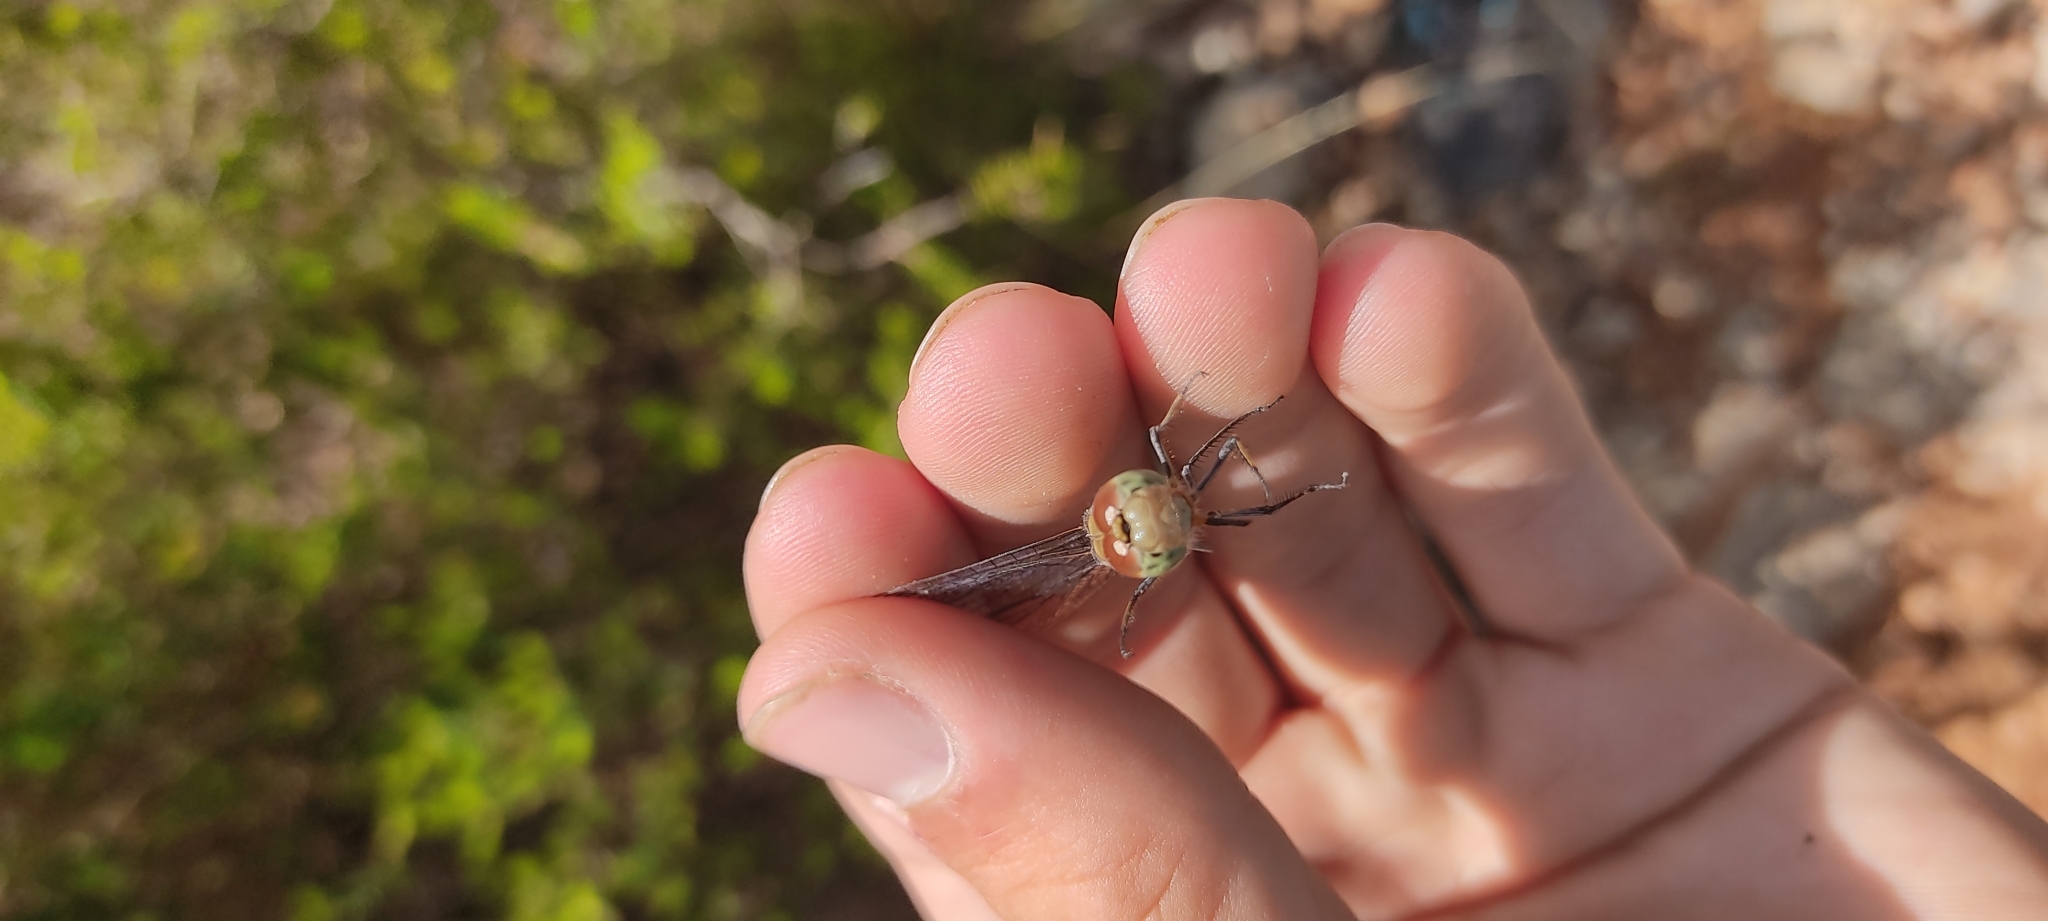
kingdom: Animalia
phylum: Arthropoda
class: Insecta
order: Odonata
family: Libellulidae
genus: Sympetrum
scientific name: Sympetrum striolatum
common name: Common darter
